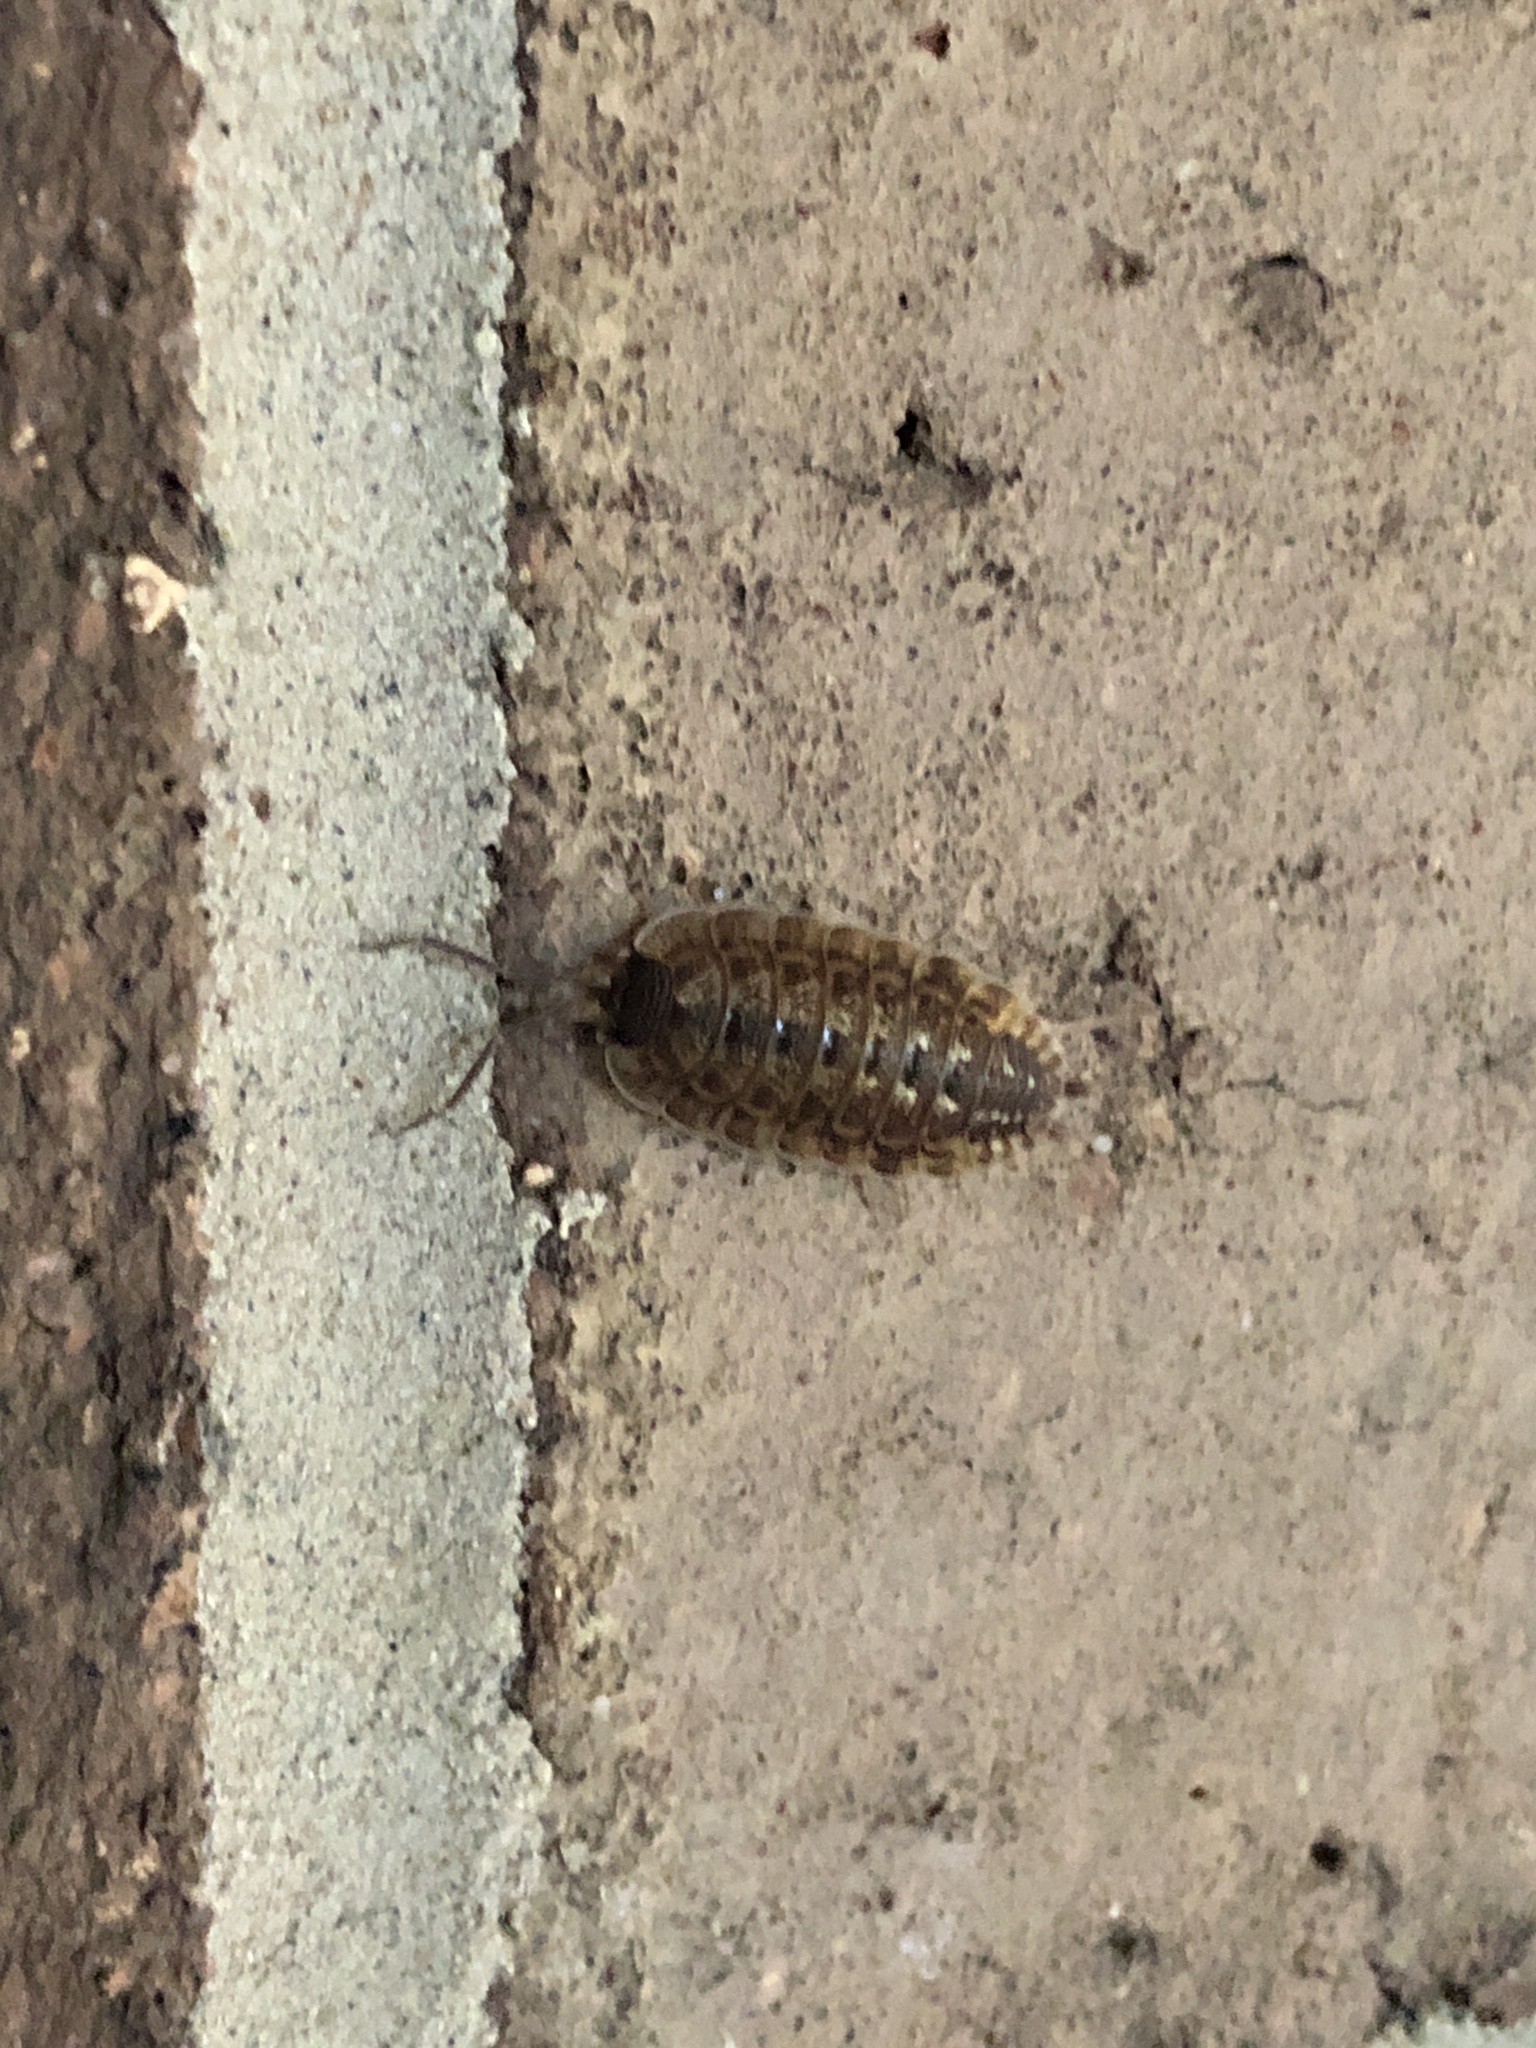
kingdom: Animalia
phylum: Arthropoda
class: Malacostraca
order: Isopoda
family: Porcellionidae
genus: Porcellio
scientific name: Porcellio spinicornis
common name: Painted woodlouse
